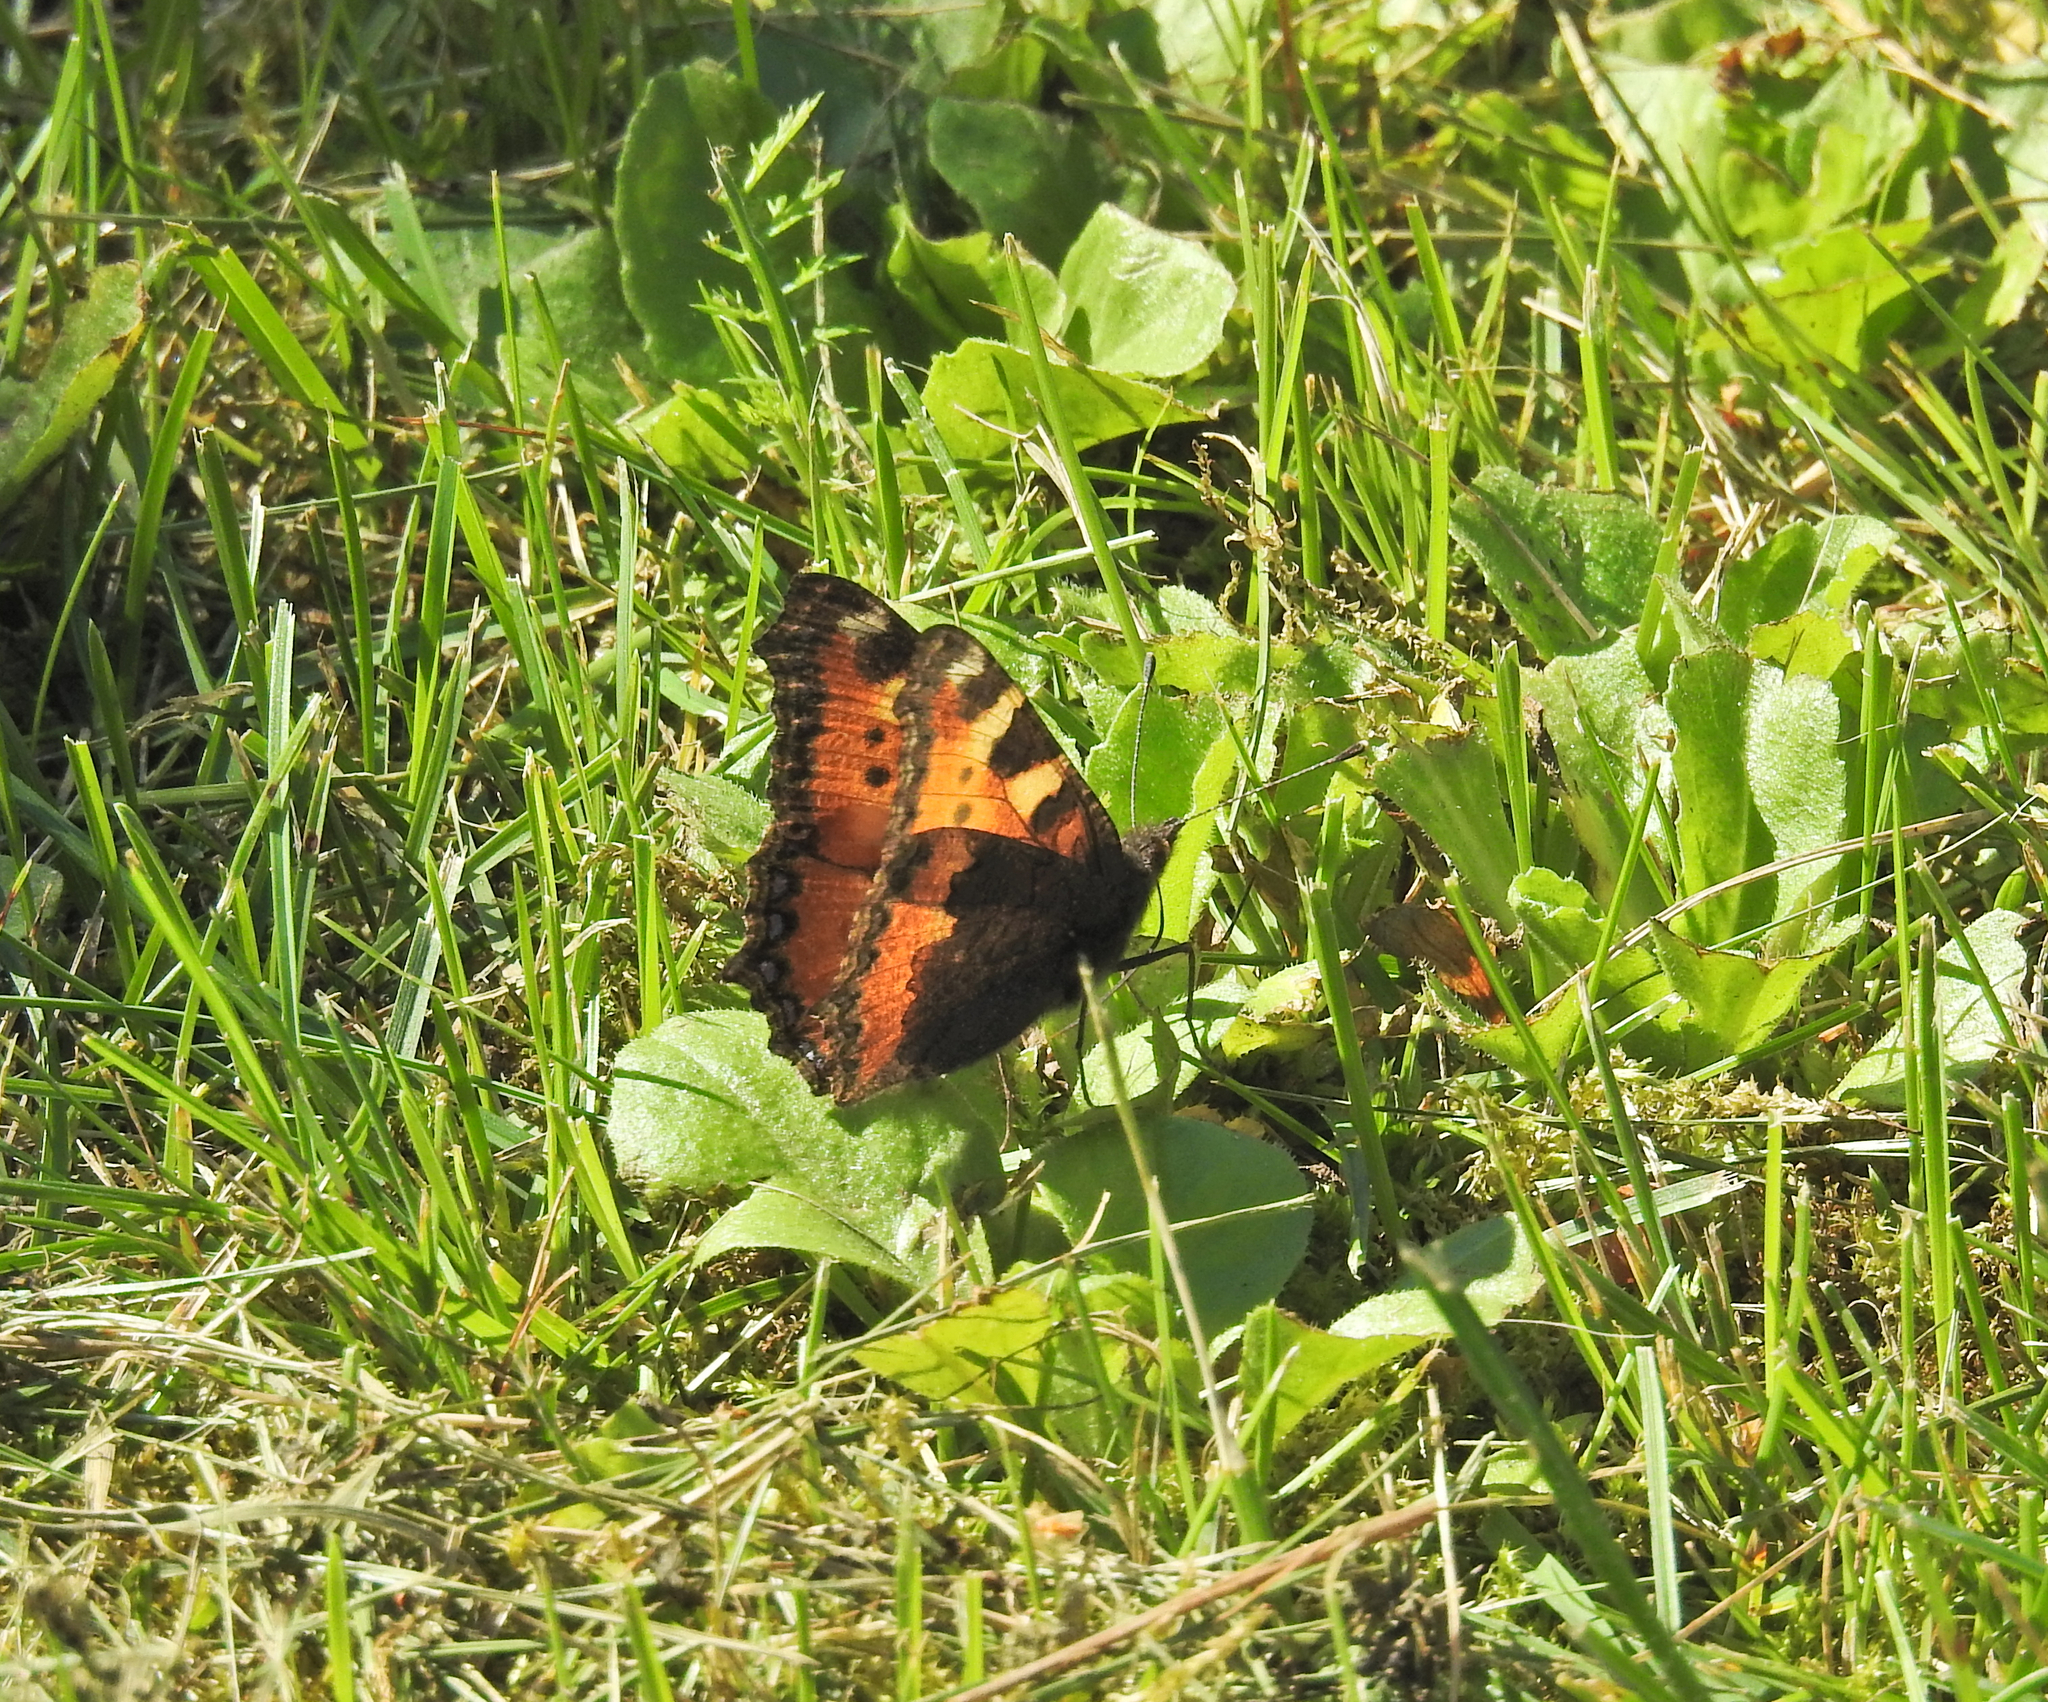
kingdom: Animalia
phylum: Arthropoda
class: Insecta
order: Lepidoptera
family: Nymphalidae
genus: Aglais
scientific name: Aglais urticae
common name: Small tortoiseshell
